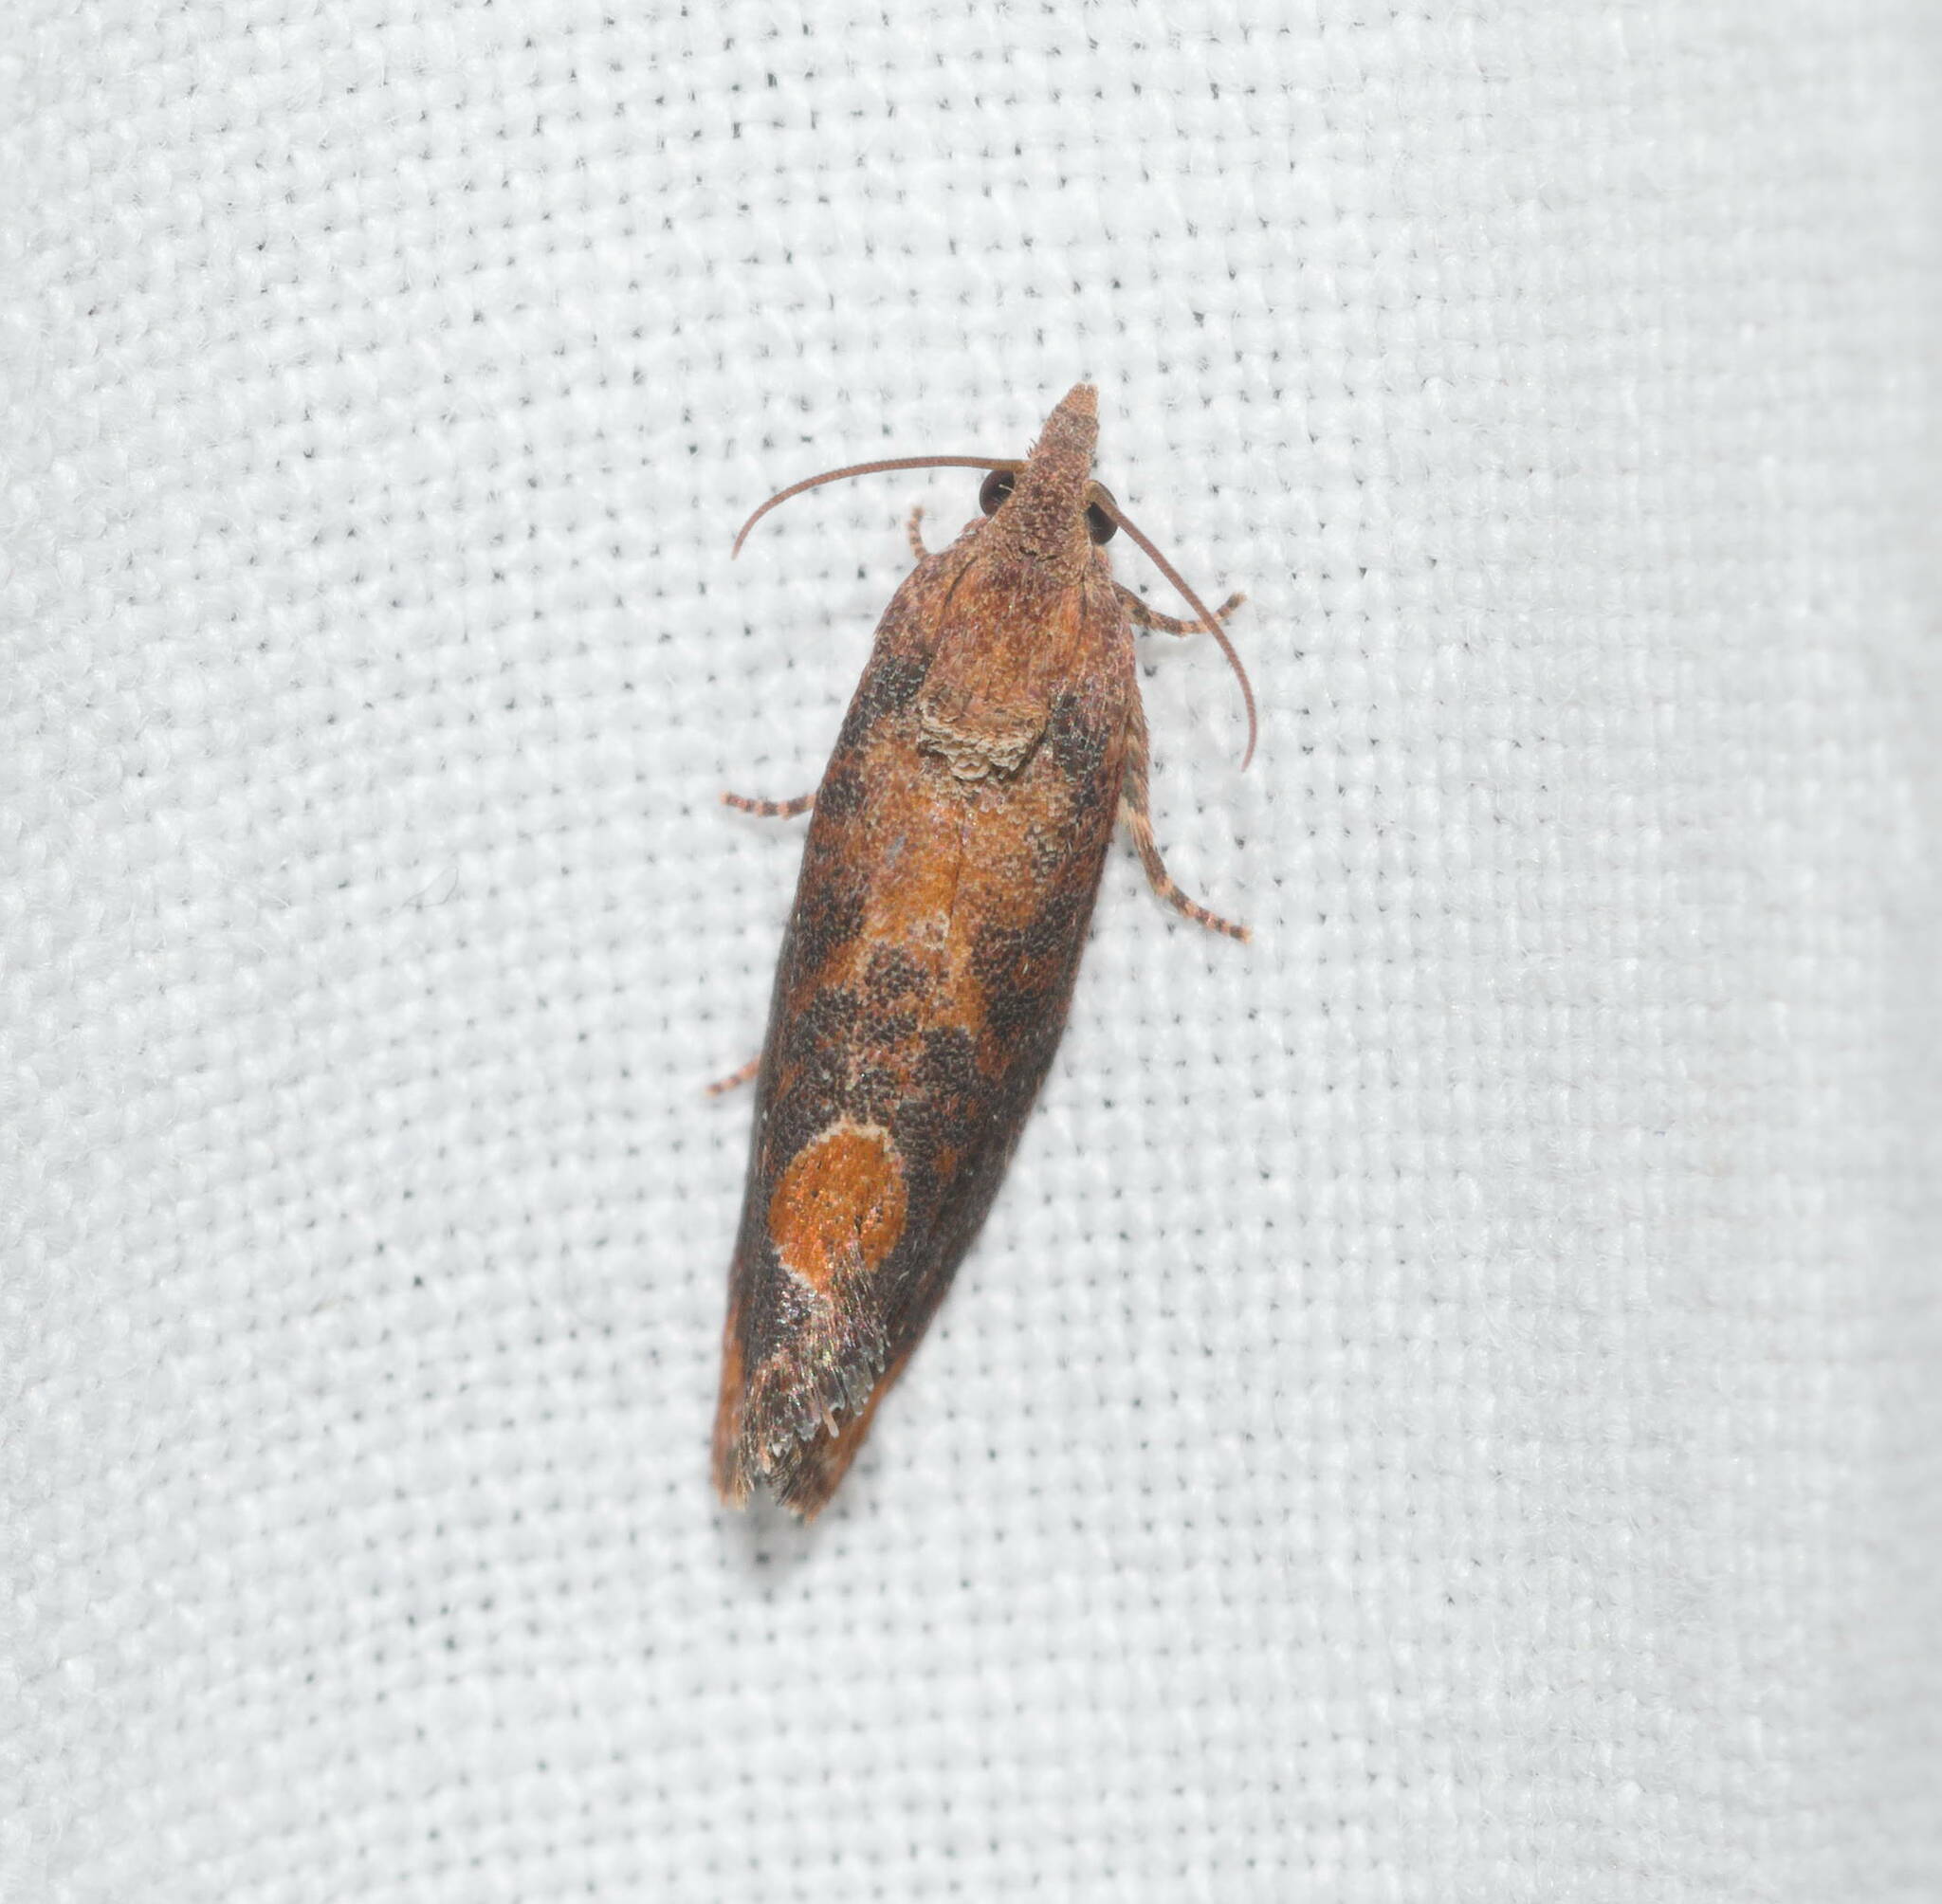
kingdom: Animalia
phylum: Arthropoda
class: Insecta
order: Lepidoptera
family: Tortricidae
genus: Cryptophlebia
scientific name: Cryptophlebia illepida
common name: Moth
